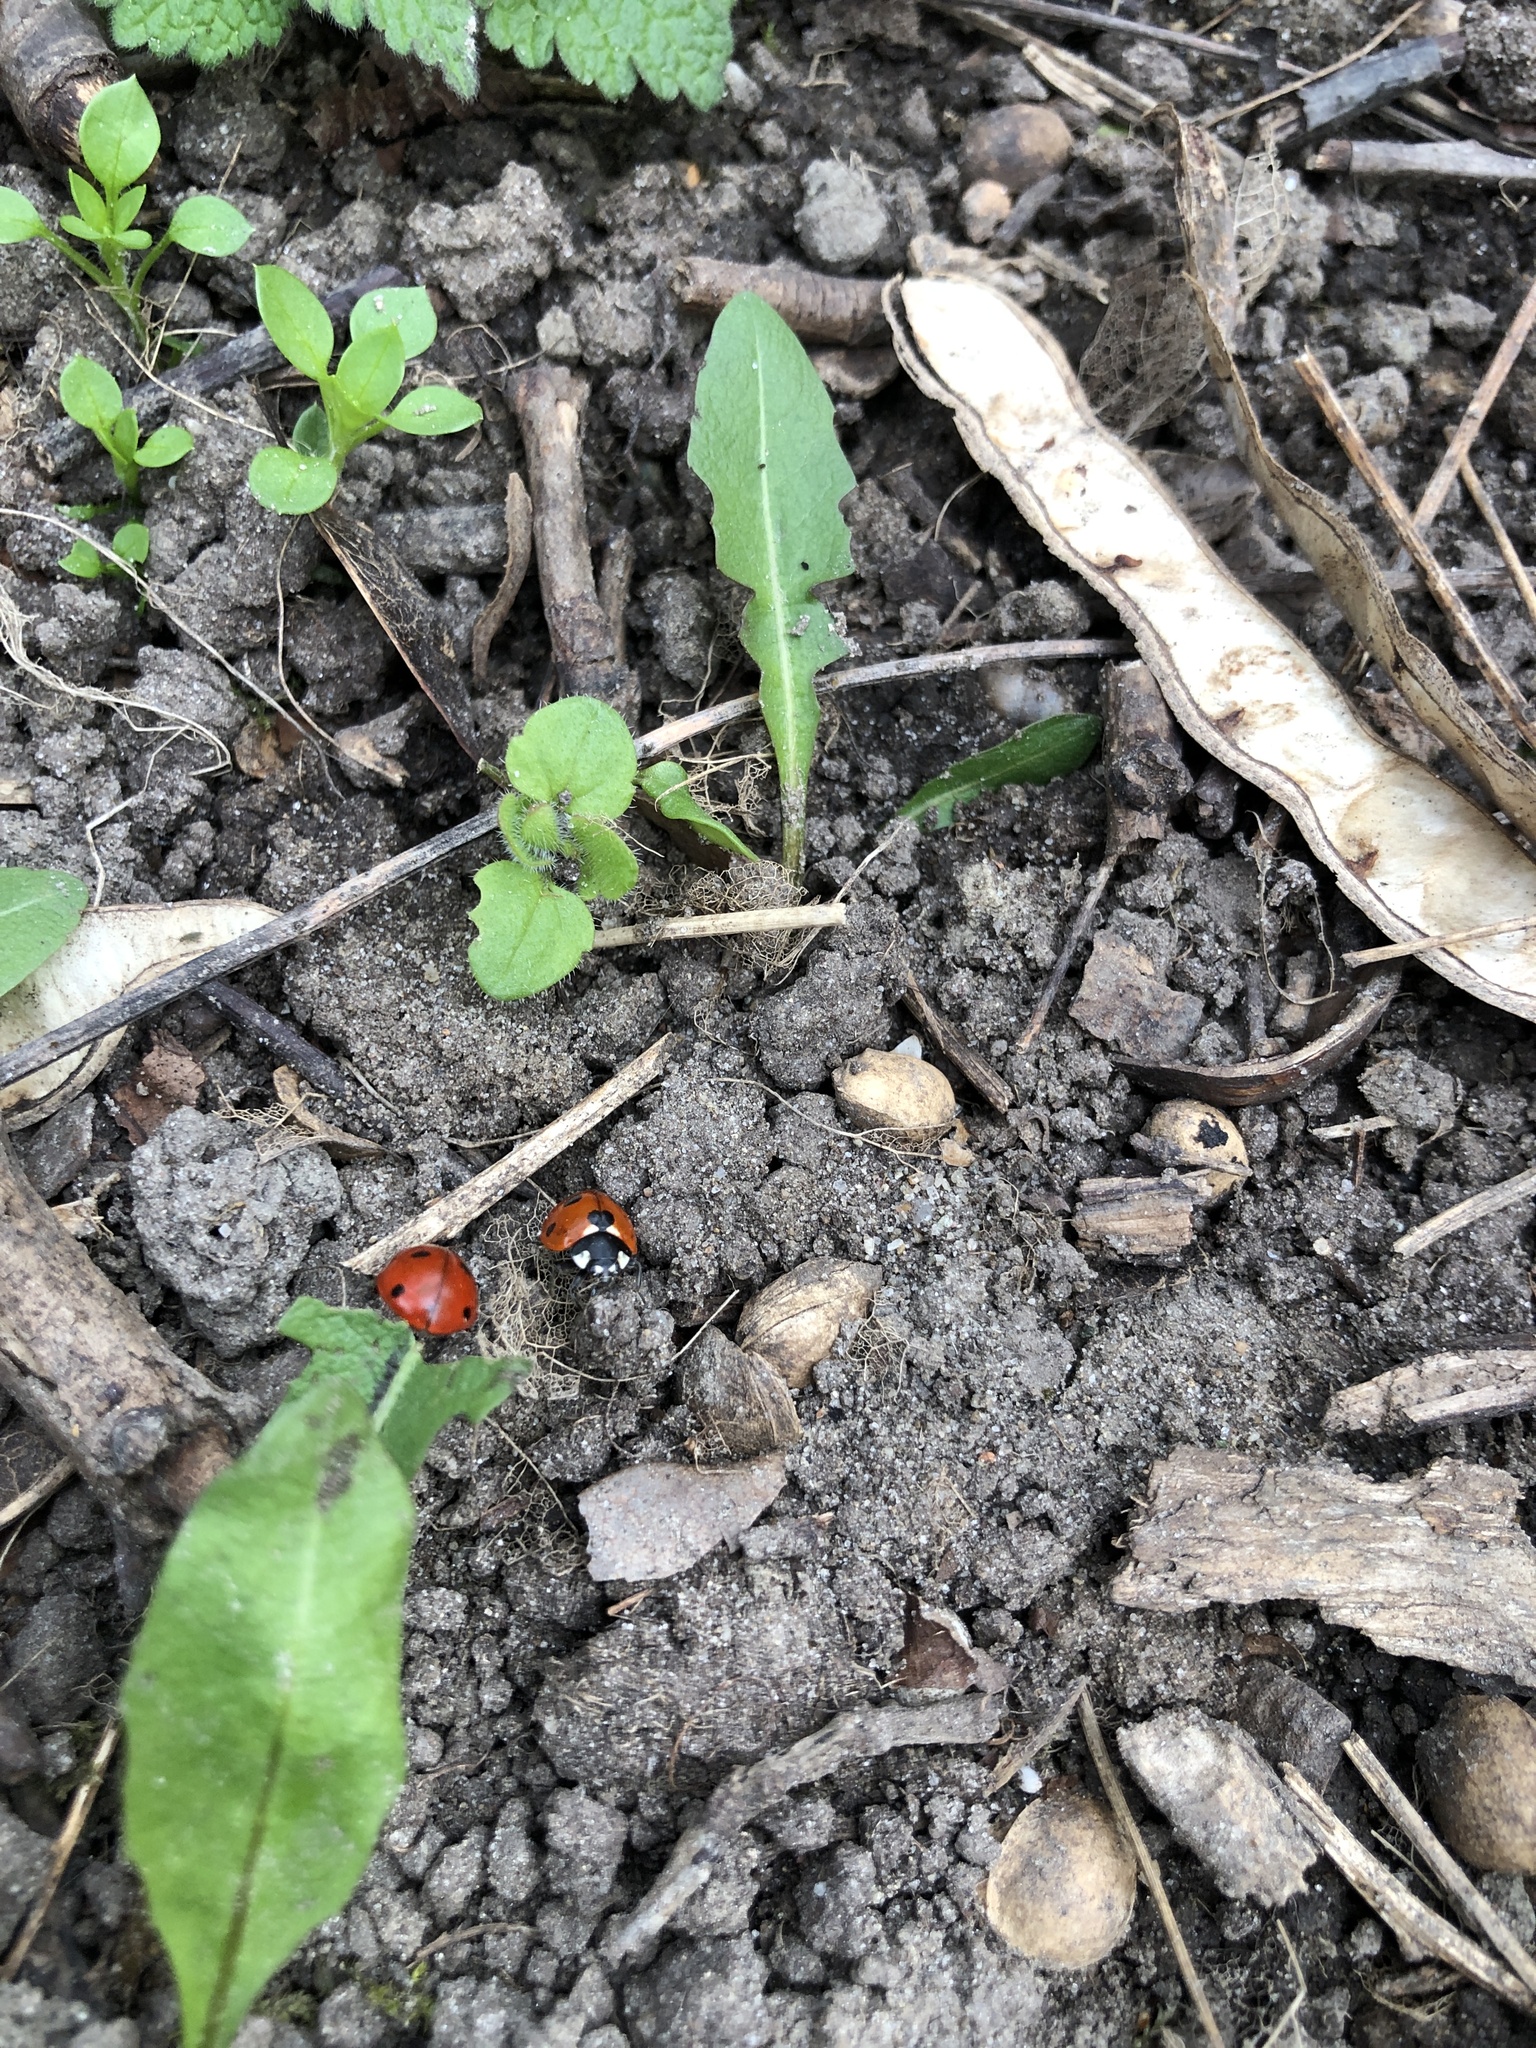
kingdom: Animalia
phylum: Arthropoda
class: Insecta
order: Coleoptera
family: Coccinellidae
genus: Coccinella
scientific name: Coccinella septempunctata
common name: Sevenspotted lady beetle
